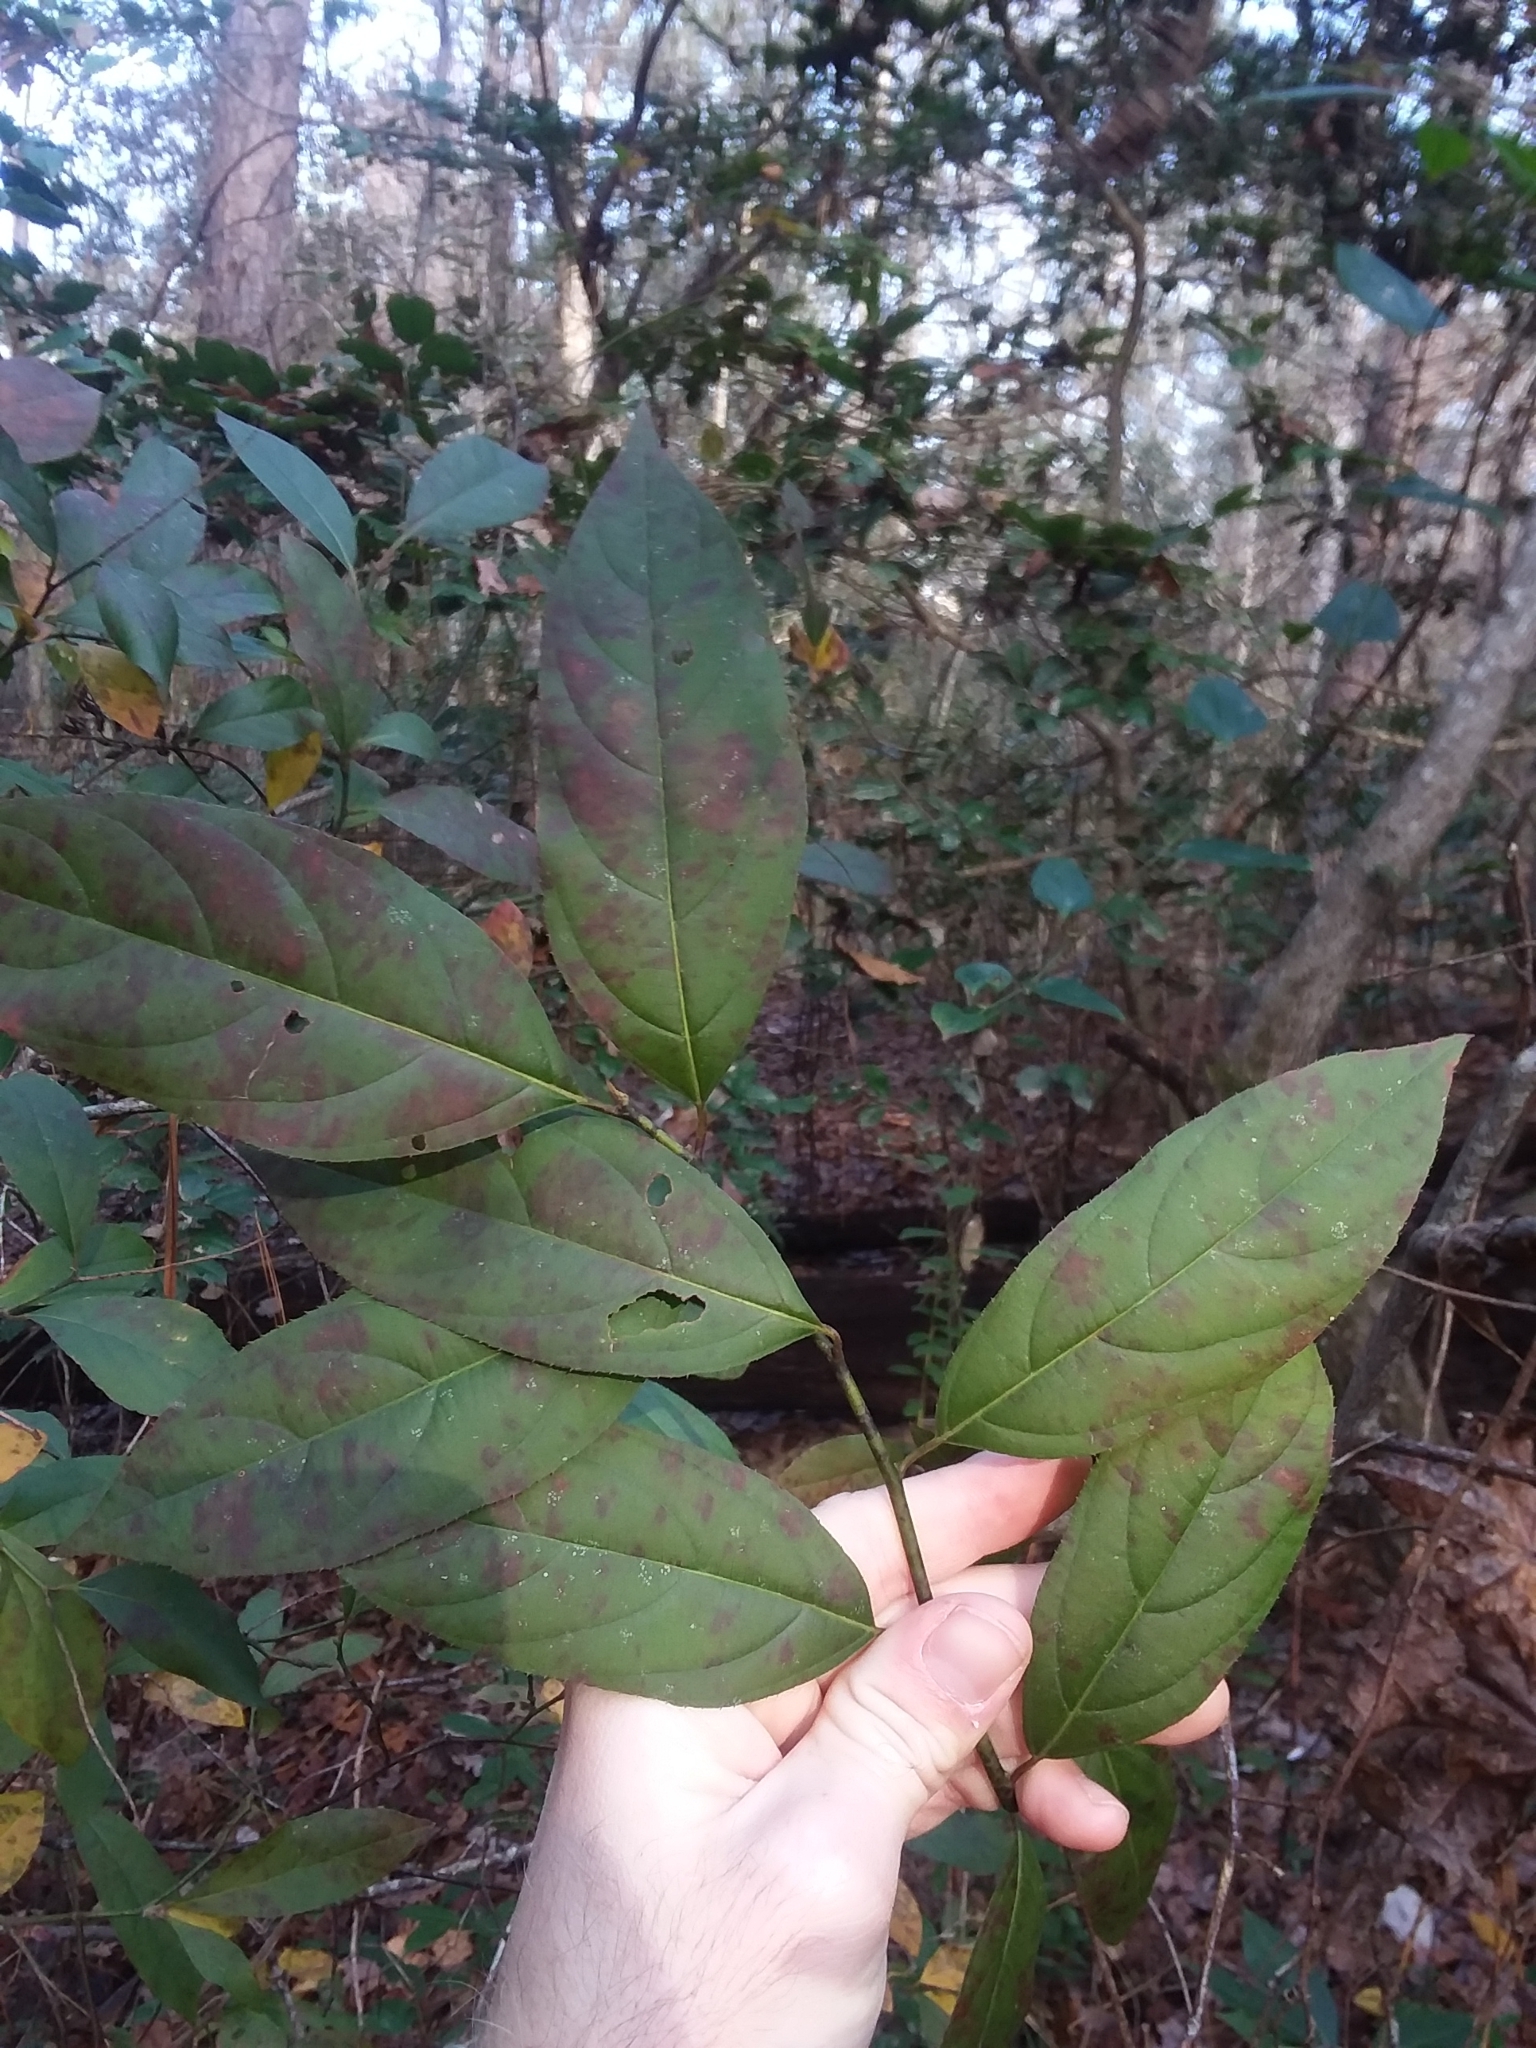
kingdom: Plantae
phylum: Tracheophyta
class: Magnoliopsida
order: Saxifragales
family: Iteaceae
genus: Itea
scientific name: Itea virginica
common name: Sweetspire
